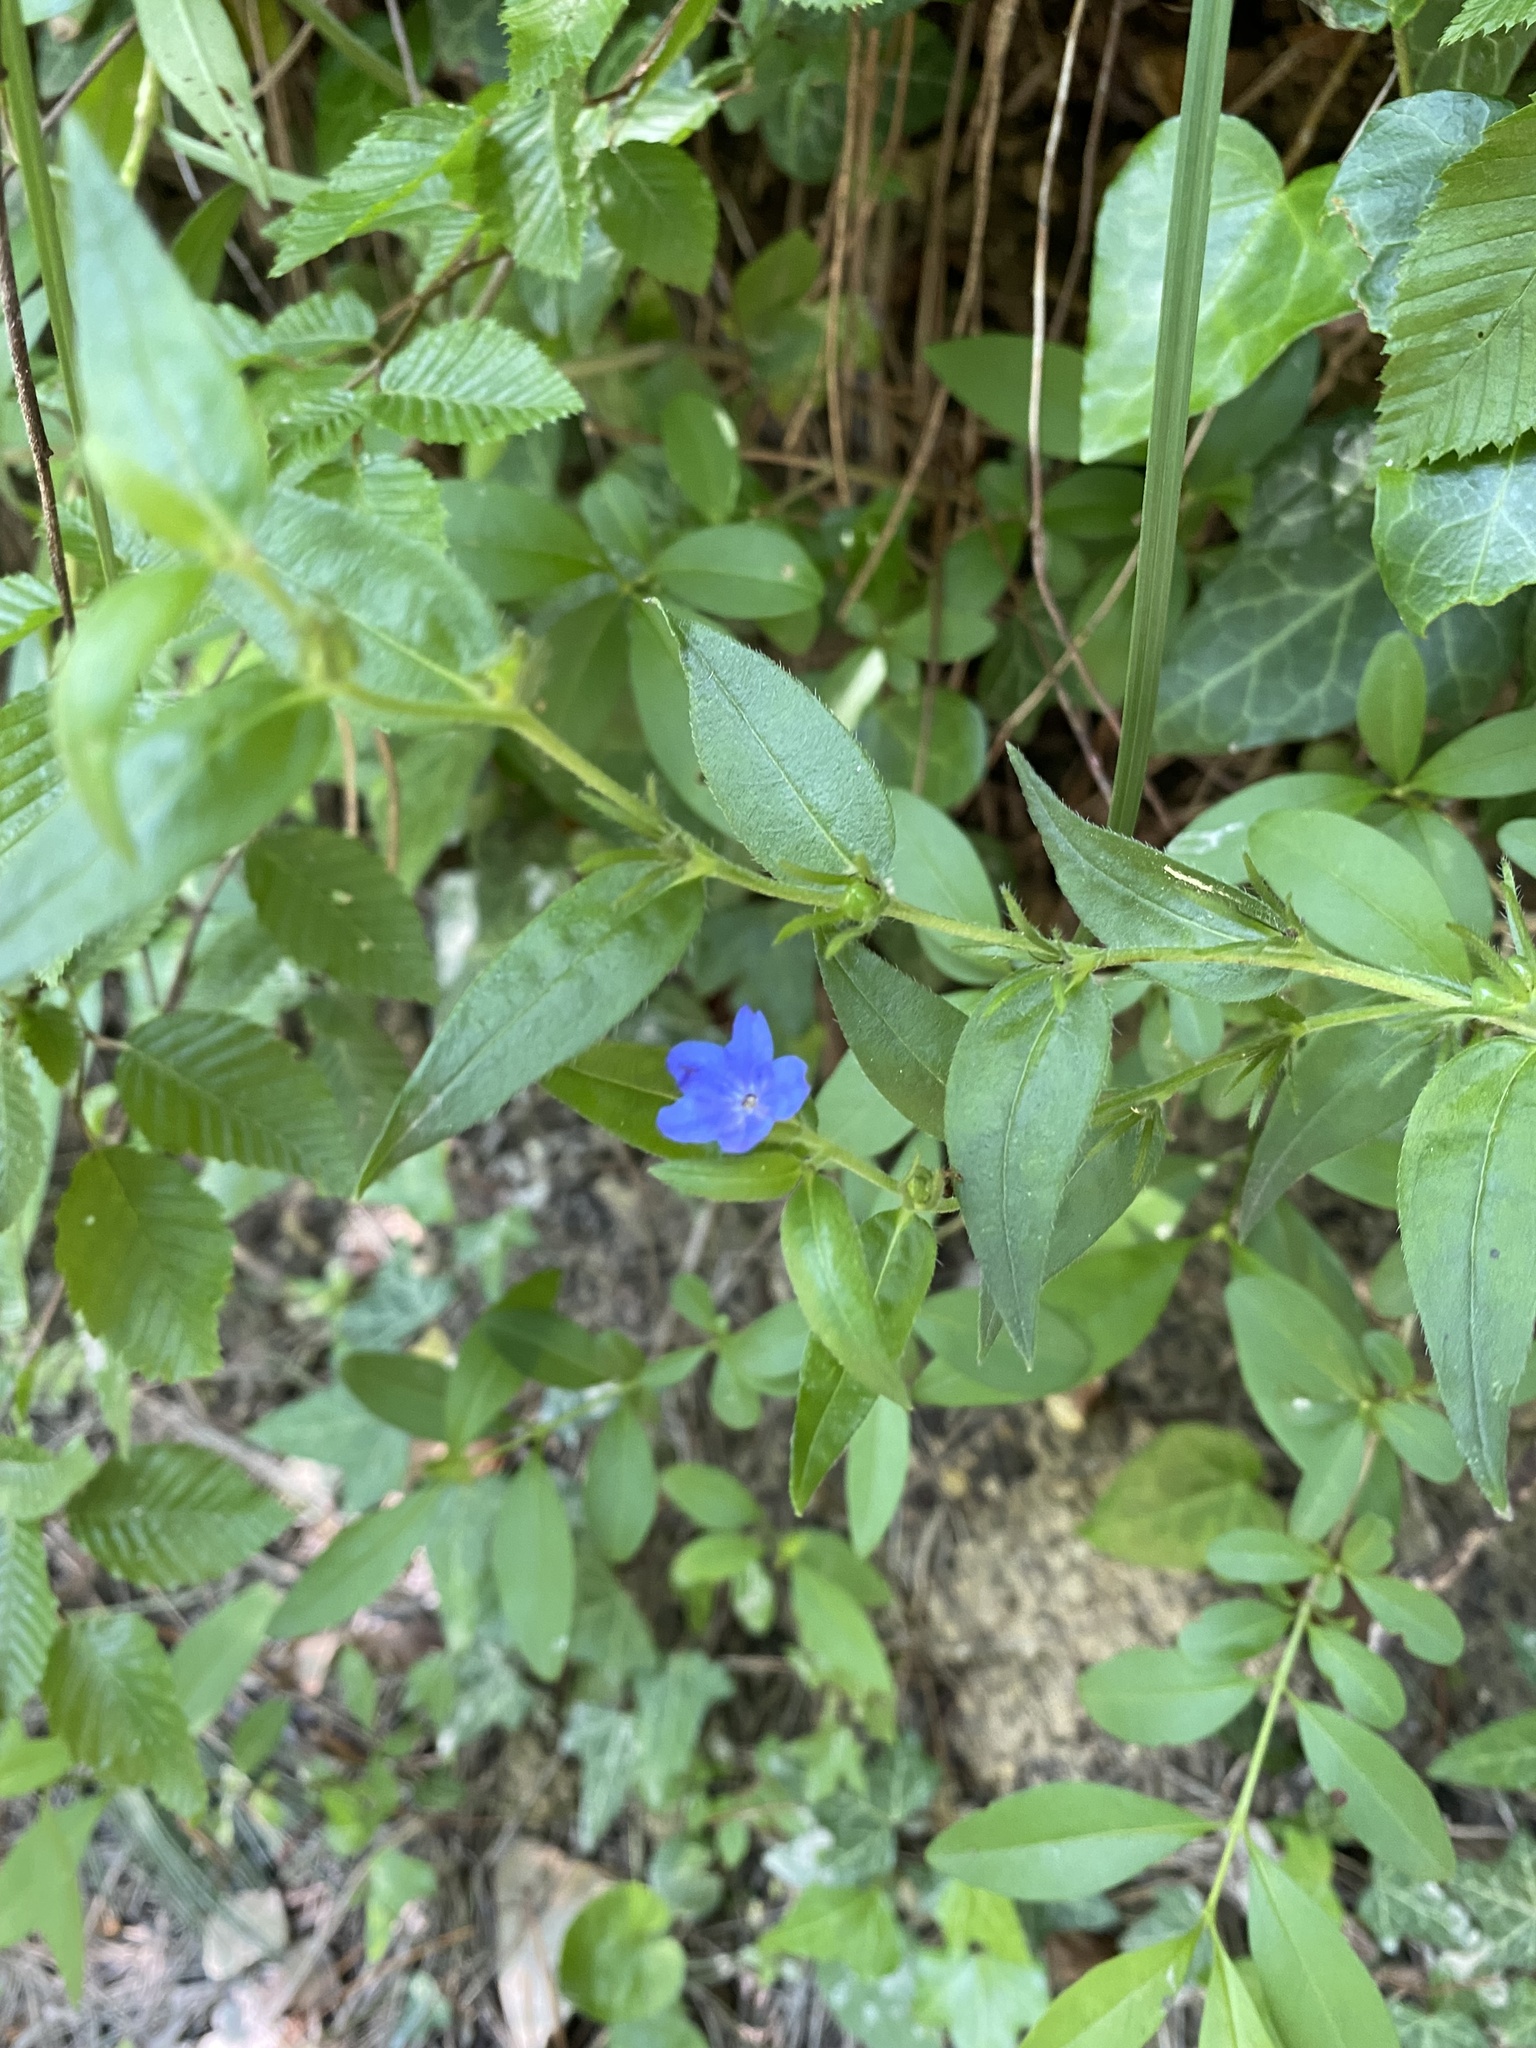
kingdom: Plantae
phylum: Tracheophyta
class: Magnoliopsida
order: Boraginales
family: Boraginaceae
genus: Aegonychon
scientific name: Aegonychon purpurocaeruleum
